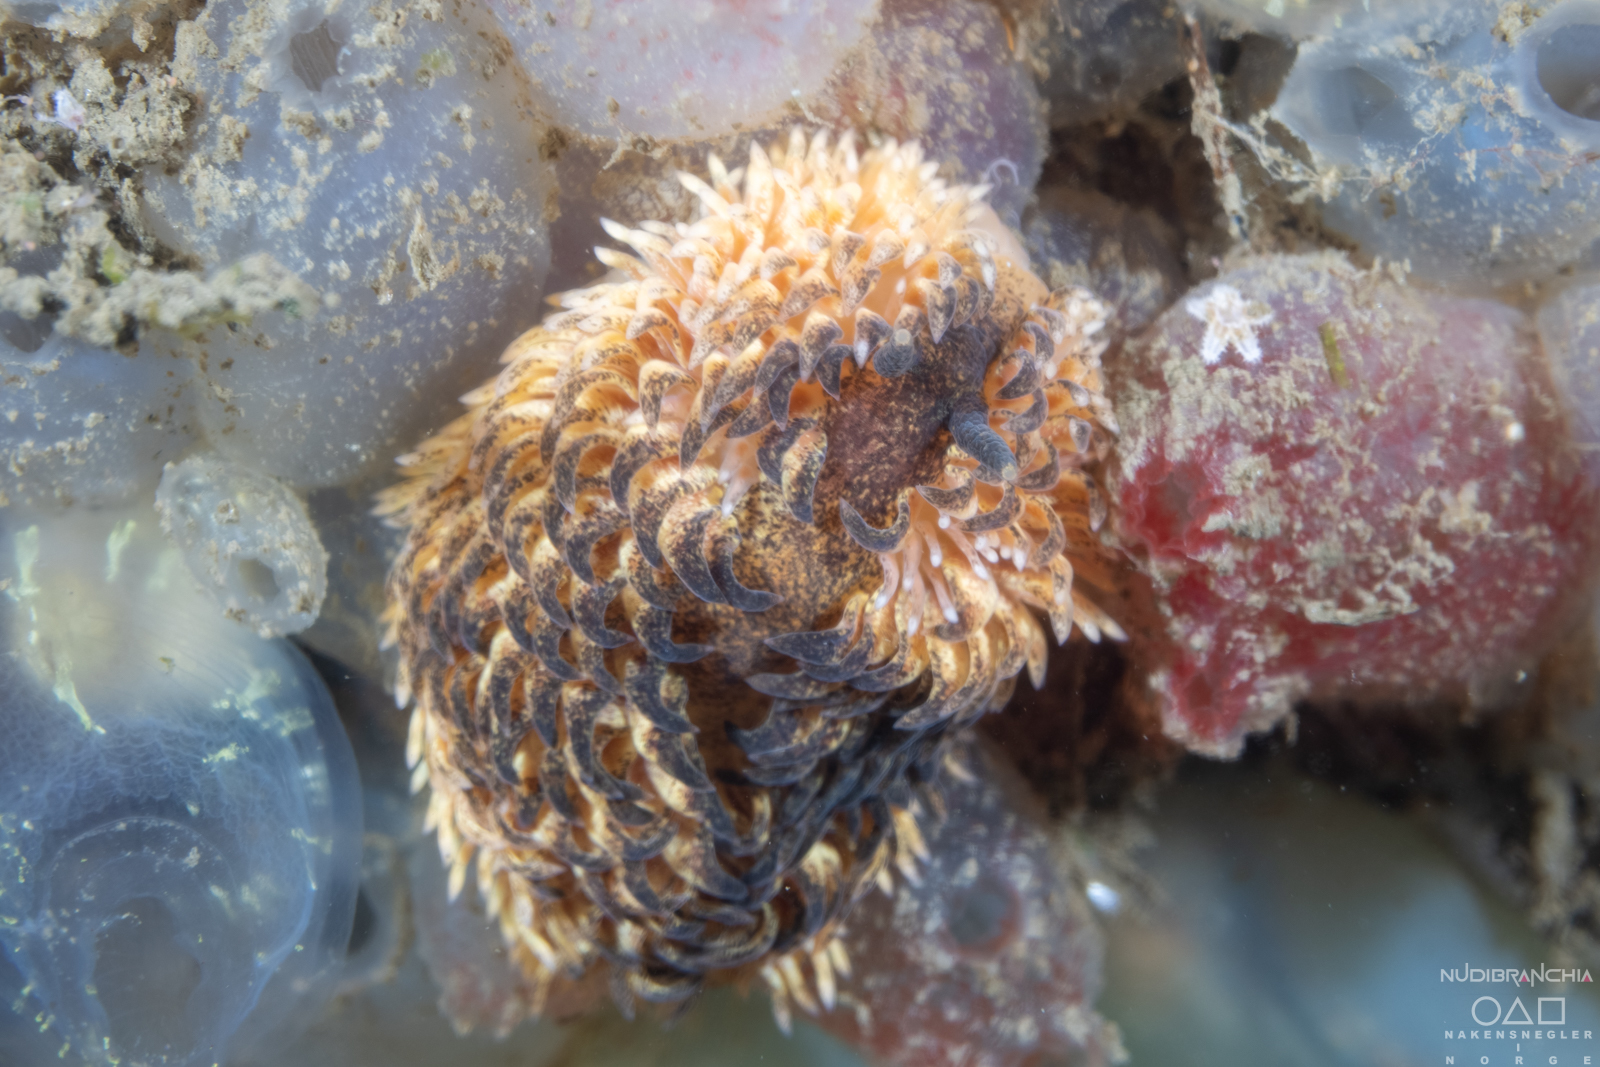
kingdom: Animalia
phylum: Mollusca
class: Gastropoda
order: Nudibranchia
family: Aeolidiidae
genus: Aeolidia
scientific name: Aeolidia papillosa
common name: Common grey sea slug
